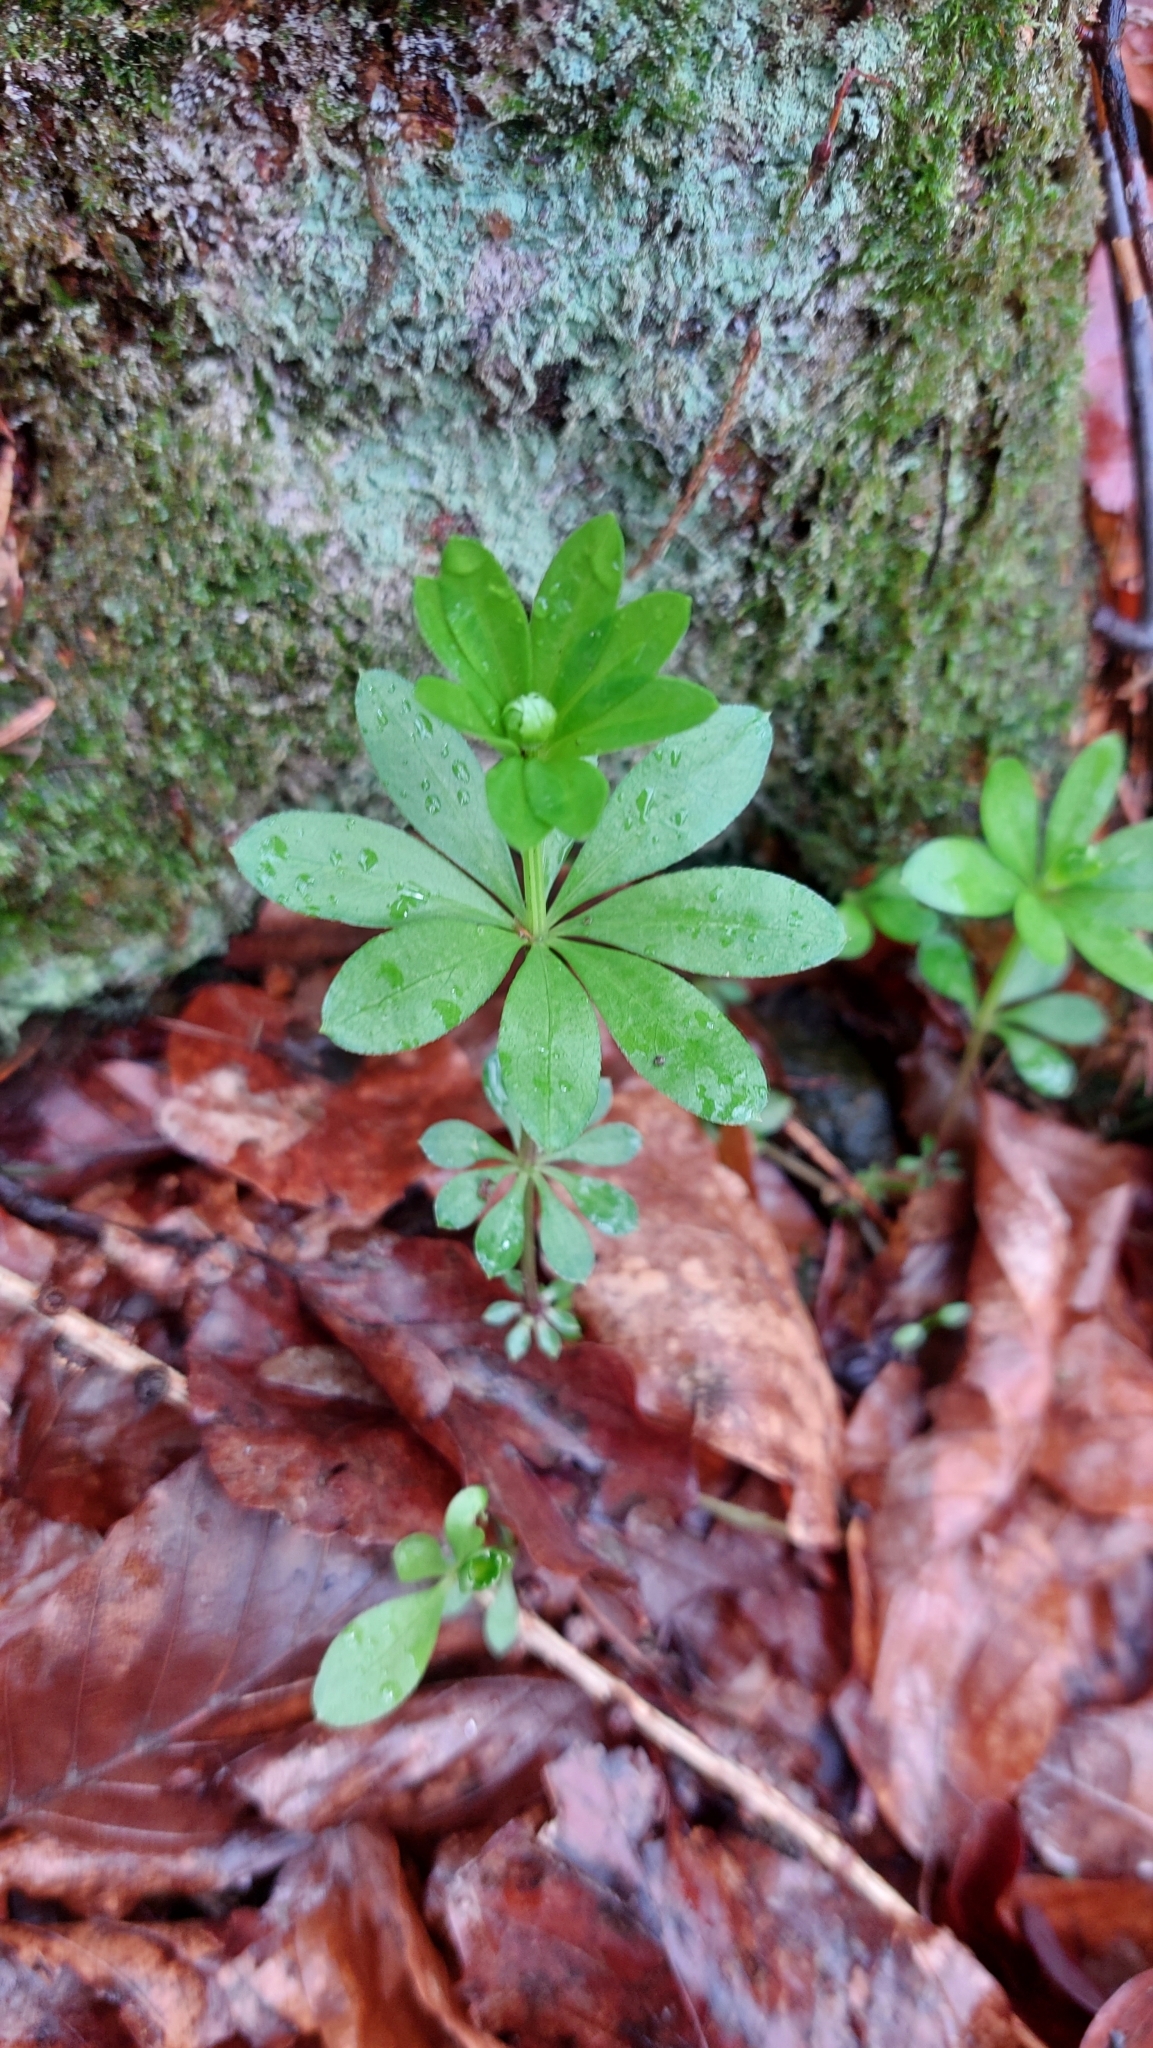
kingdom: Plantae
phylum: Tracheophyta
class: Magnoliopsida
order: Gentianales
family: Rubiaceae
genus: Galium
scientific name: Galium odoratum
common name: Sweet woodruff
